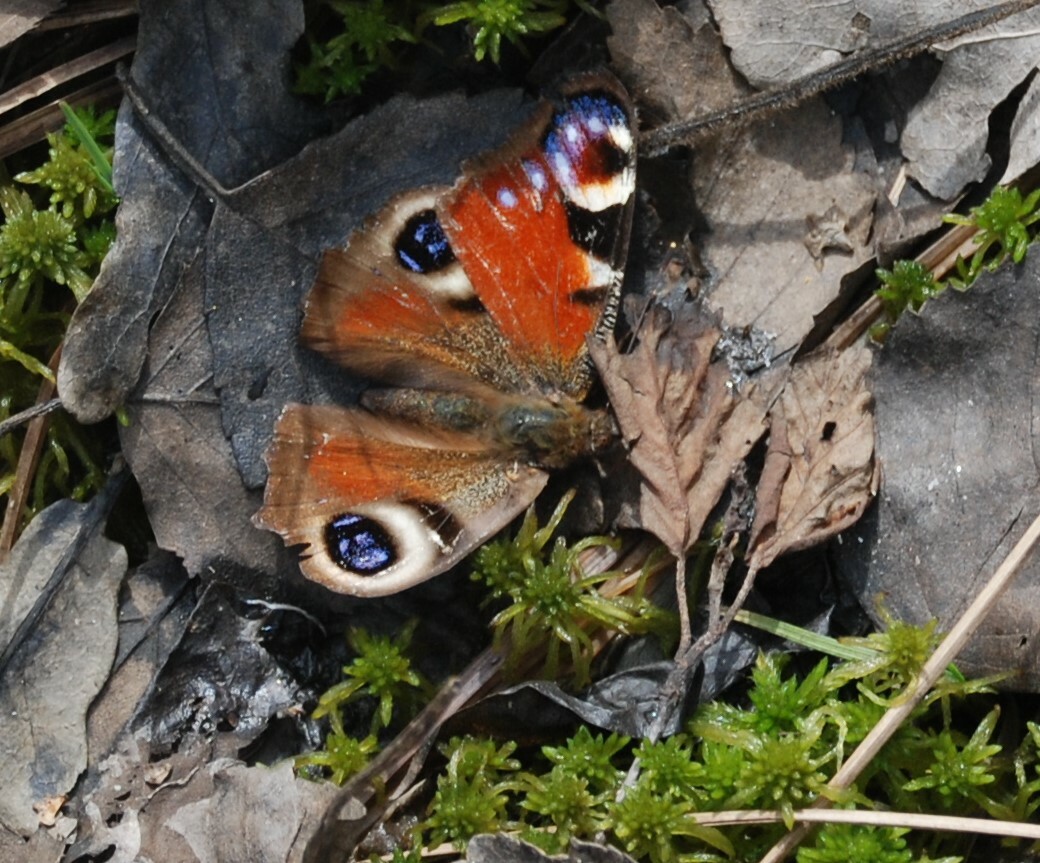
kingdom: Animalia
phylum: Arthropoda
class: Insecta
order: Lepidoptera
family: Nymphalidae
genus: Aglais
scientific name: Aglais io
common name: Peacock
